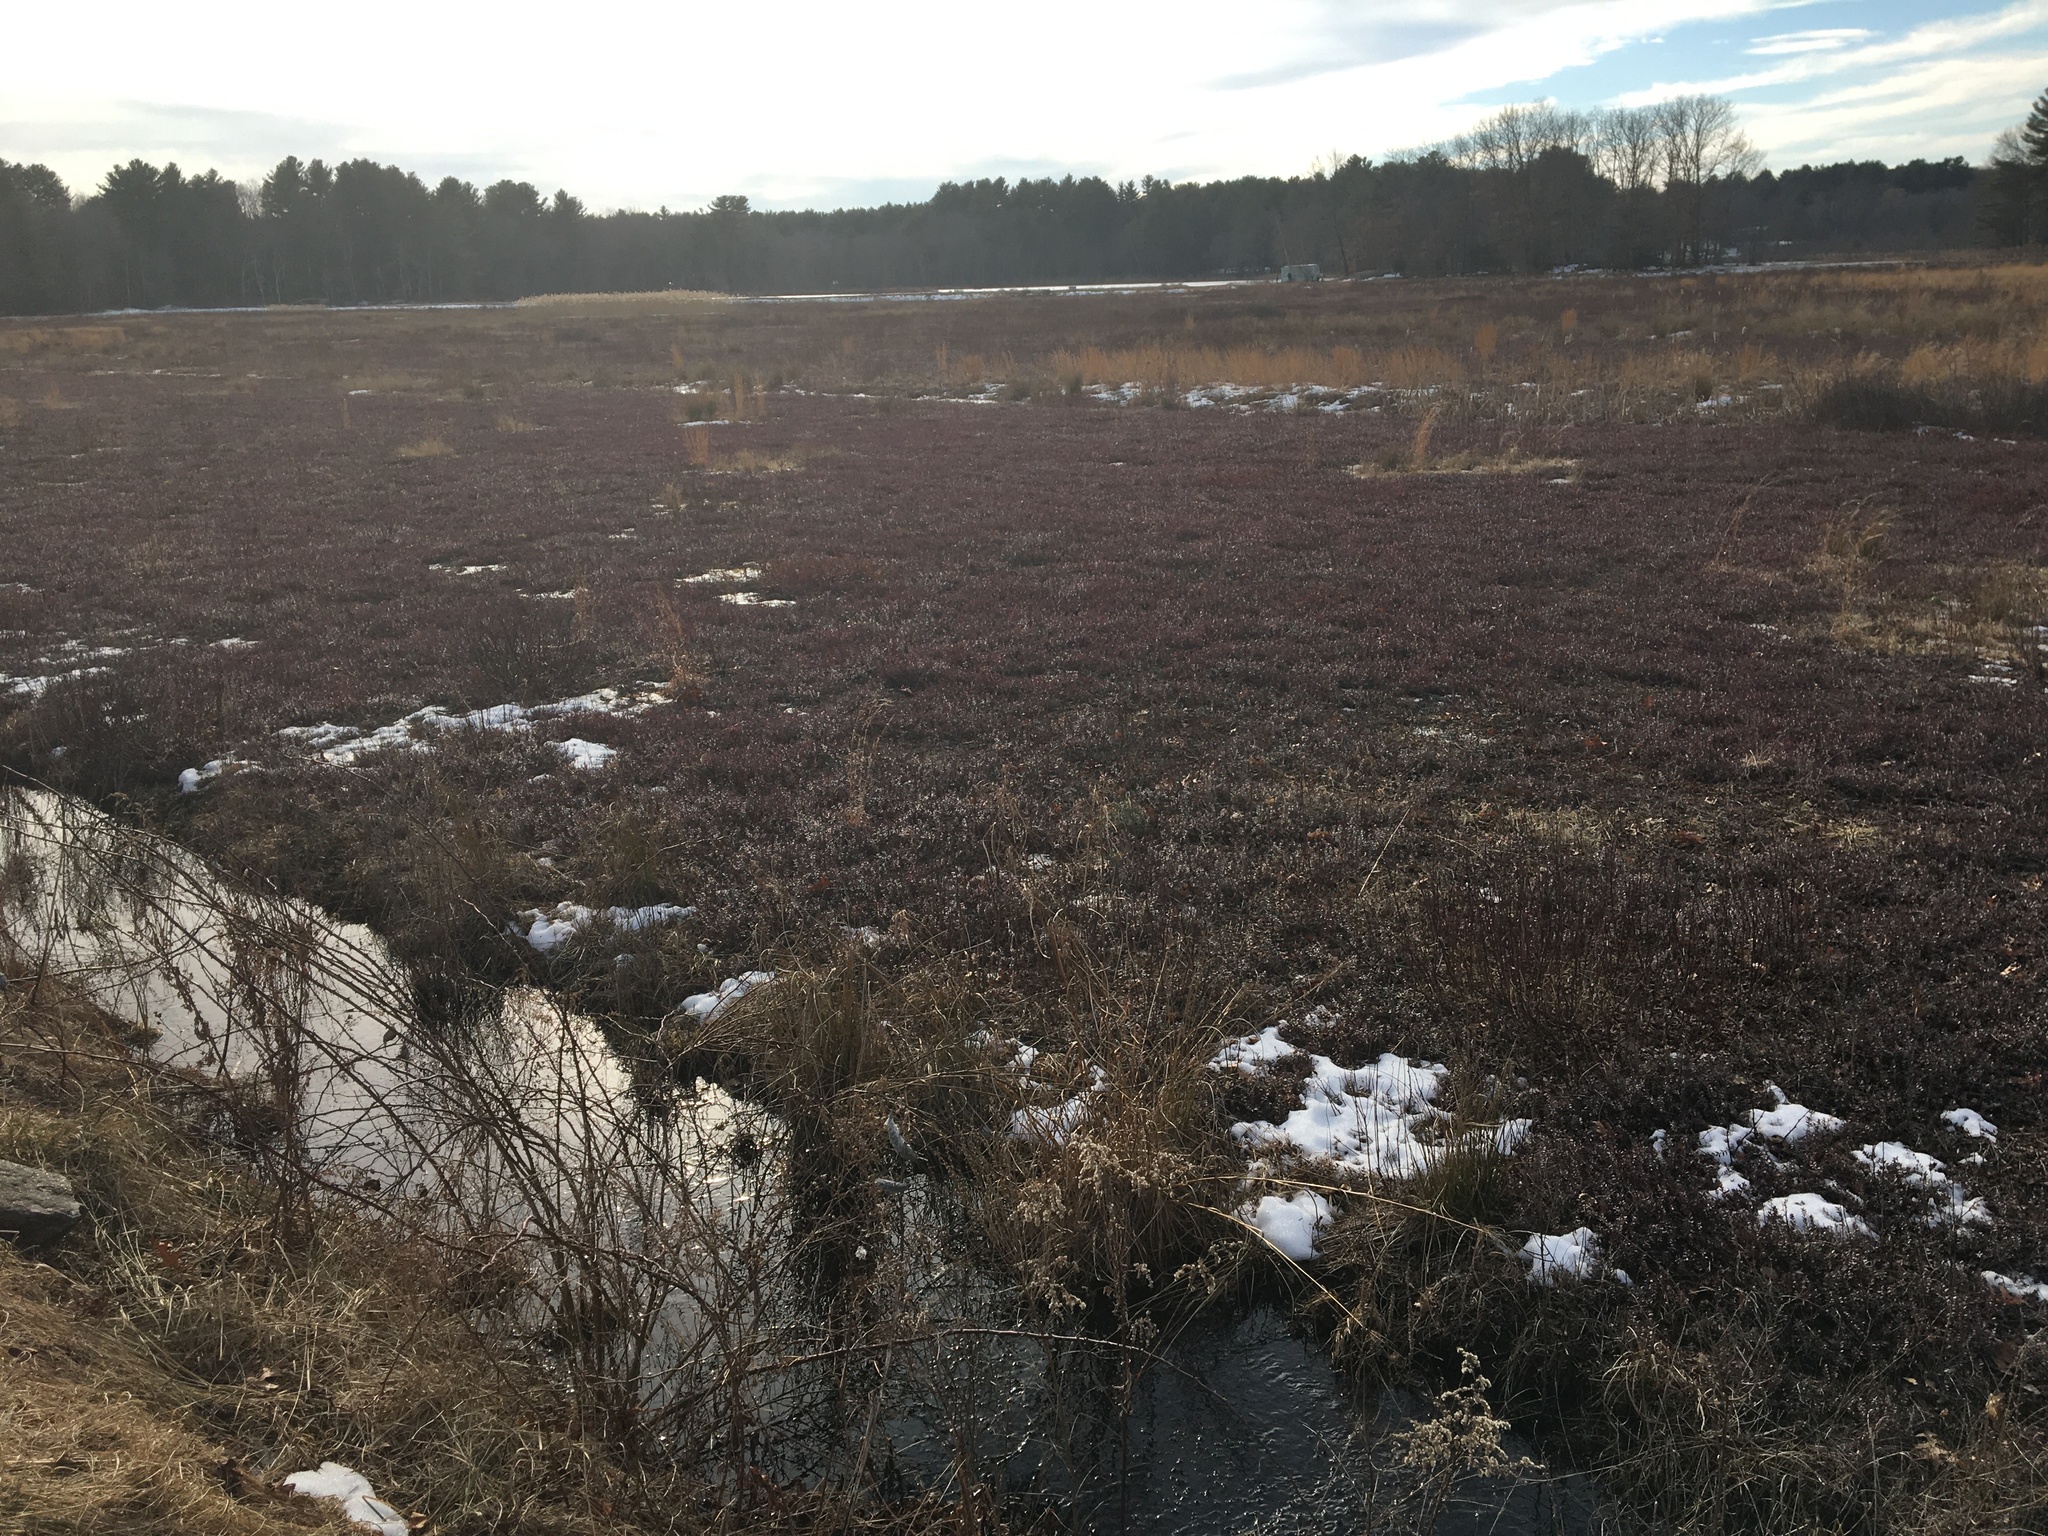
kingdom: Plantae
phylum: Tracheophyta
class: Magnoliopsida
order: Ericales
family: Ericaceae
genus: Vaccinium
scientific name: Vaccinium macrocarpon
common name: American cranberry
